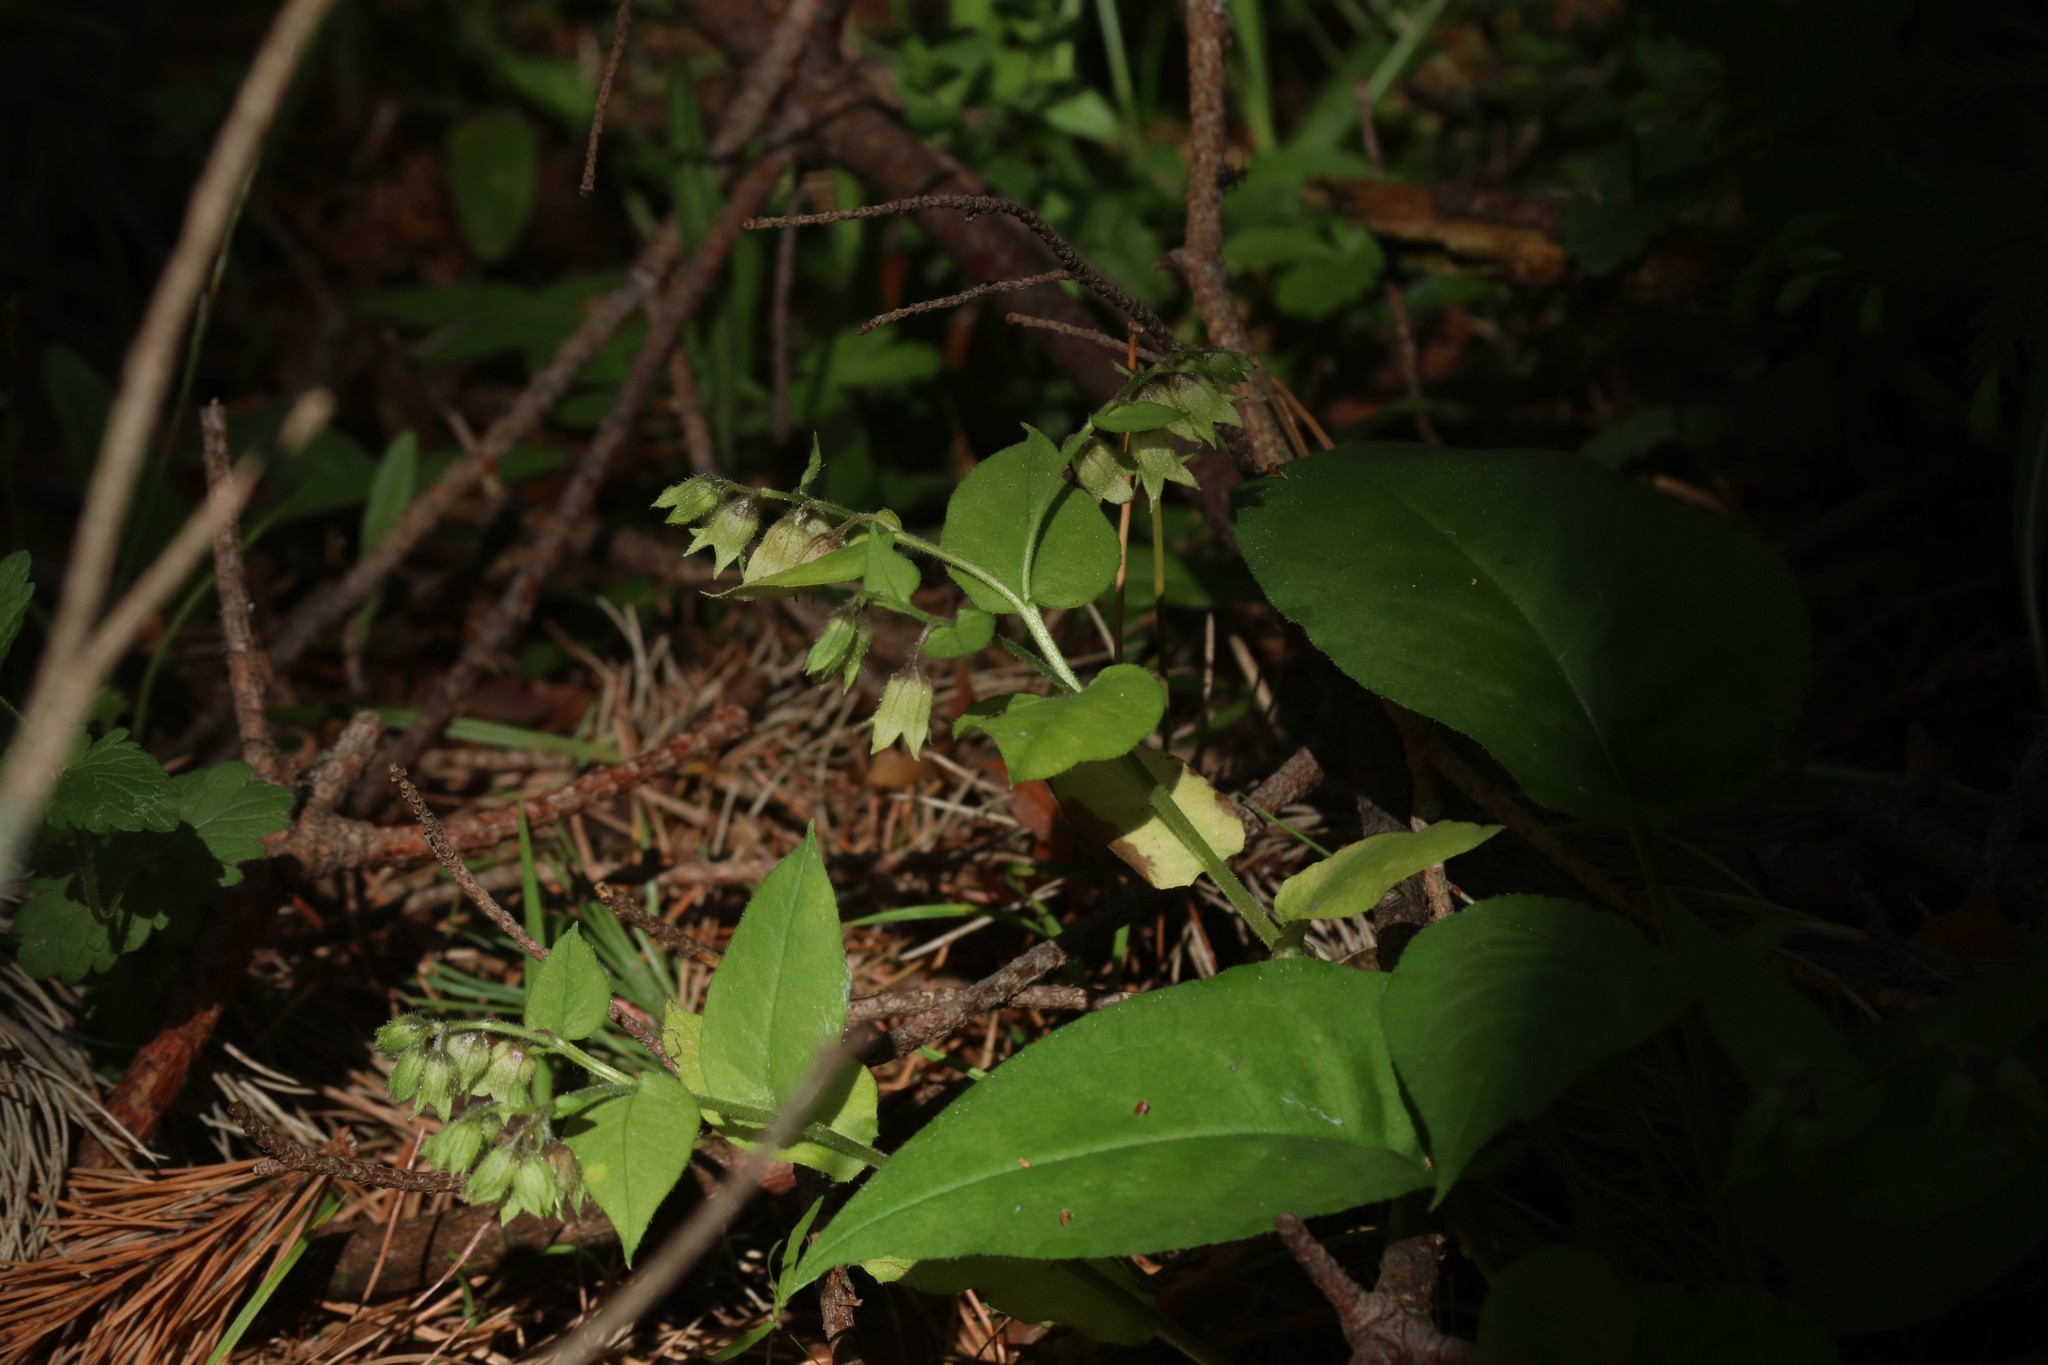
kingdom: Plantae
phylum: Tracheophyta
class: Magnoliopsida
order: Boraginales
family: Boraginaceae
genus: Pulmonaria
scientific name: Pulmonaria obscura
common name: Suffolk lungwort
